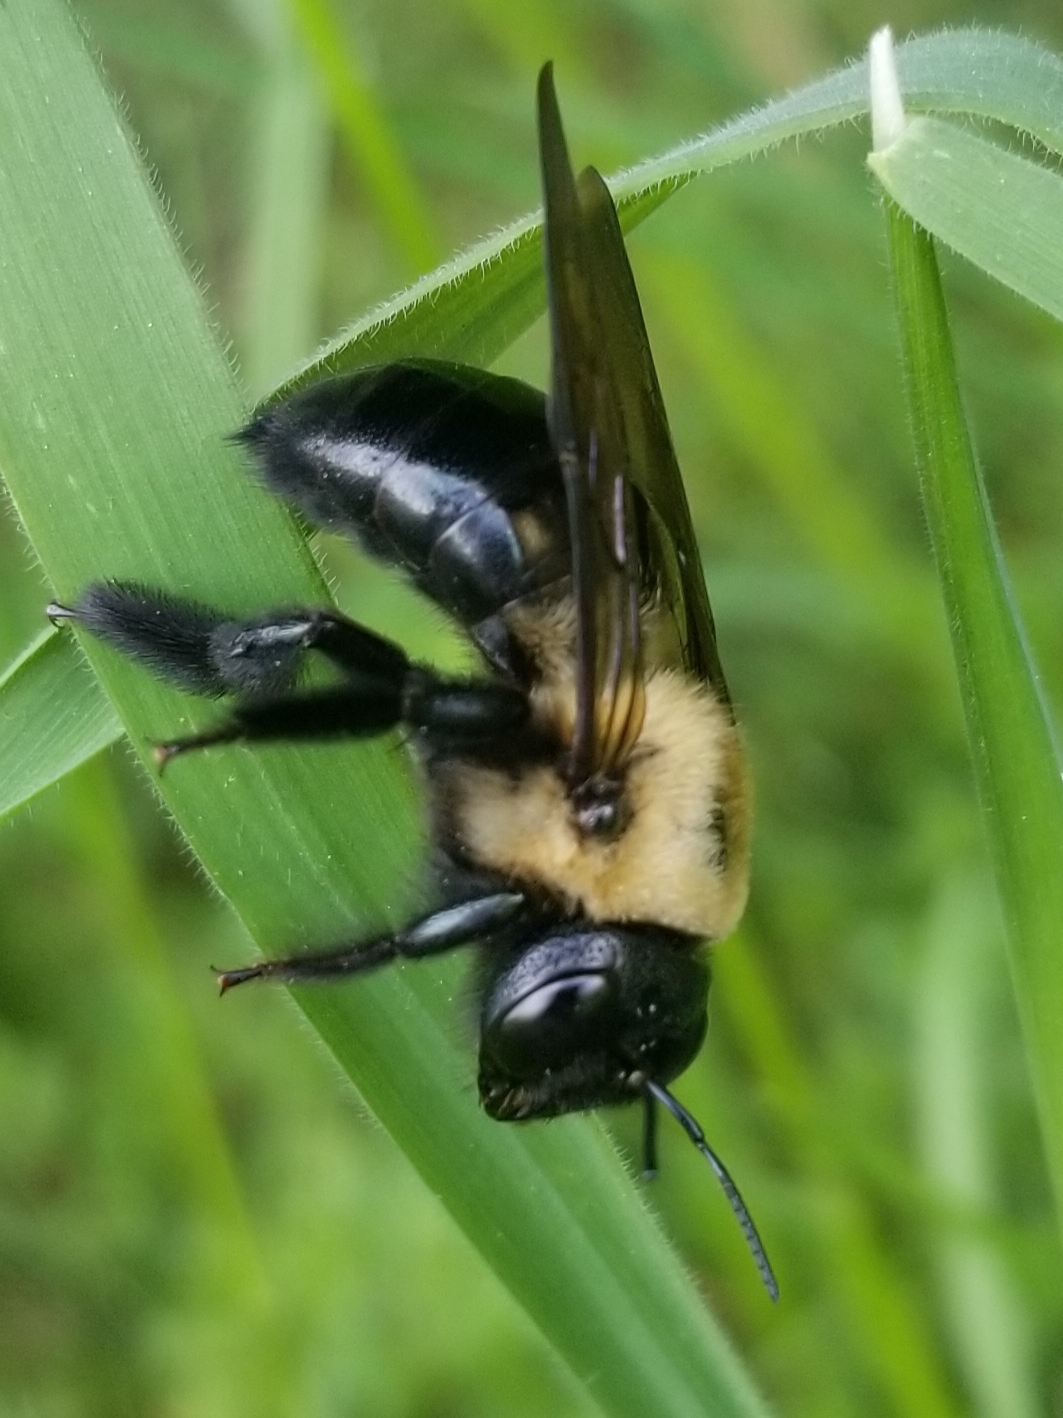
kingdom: Animalia
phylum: Arthropoda
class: Insecta
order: Hymenoptera
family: Apidae
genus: Xylocopa
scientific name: Xylocopa virginica
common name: Carpenter bee
